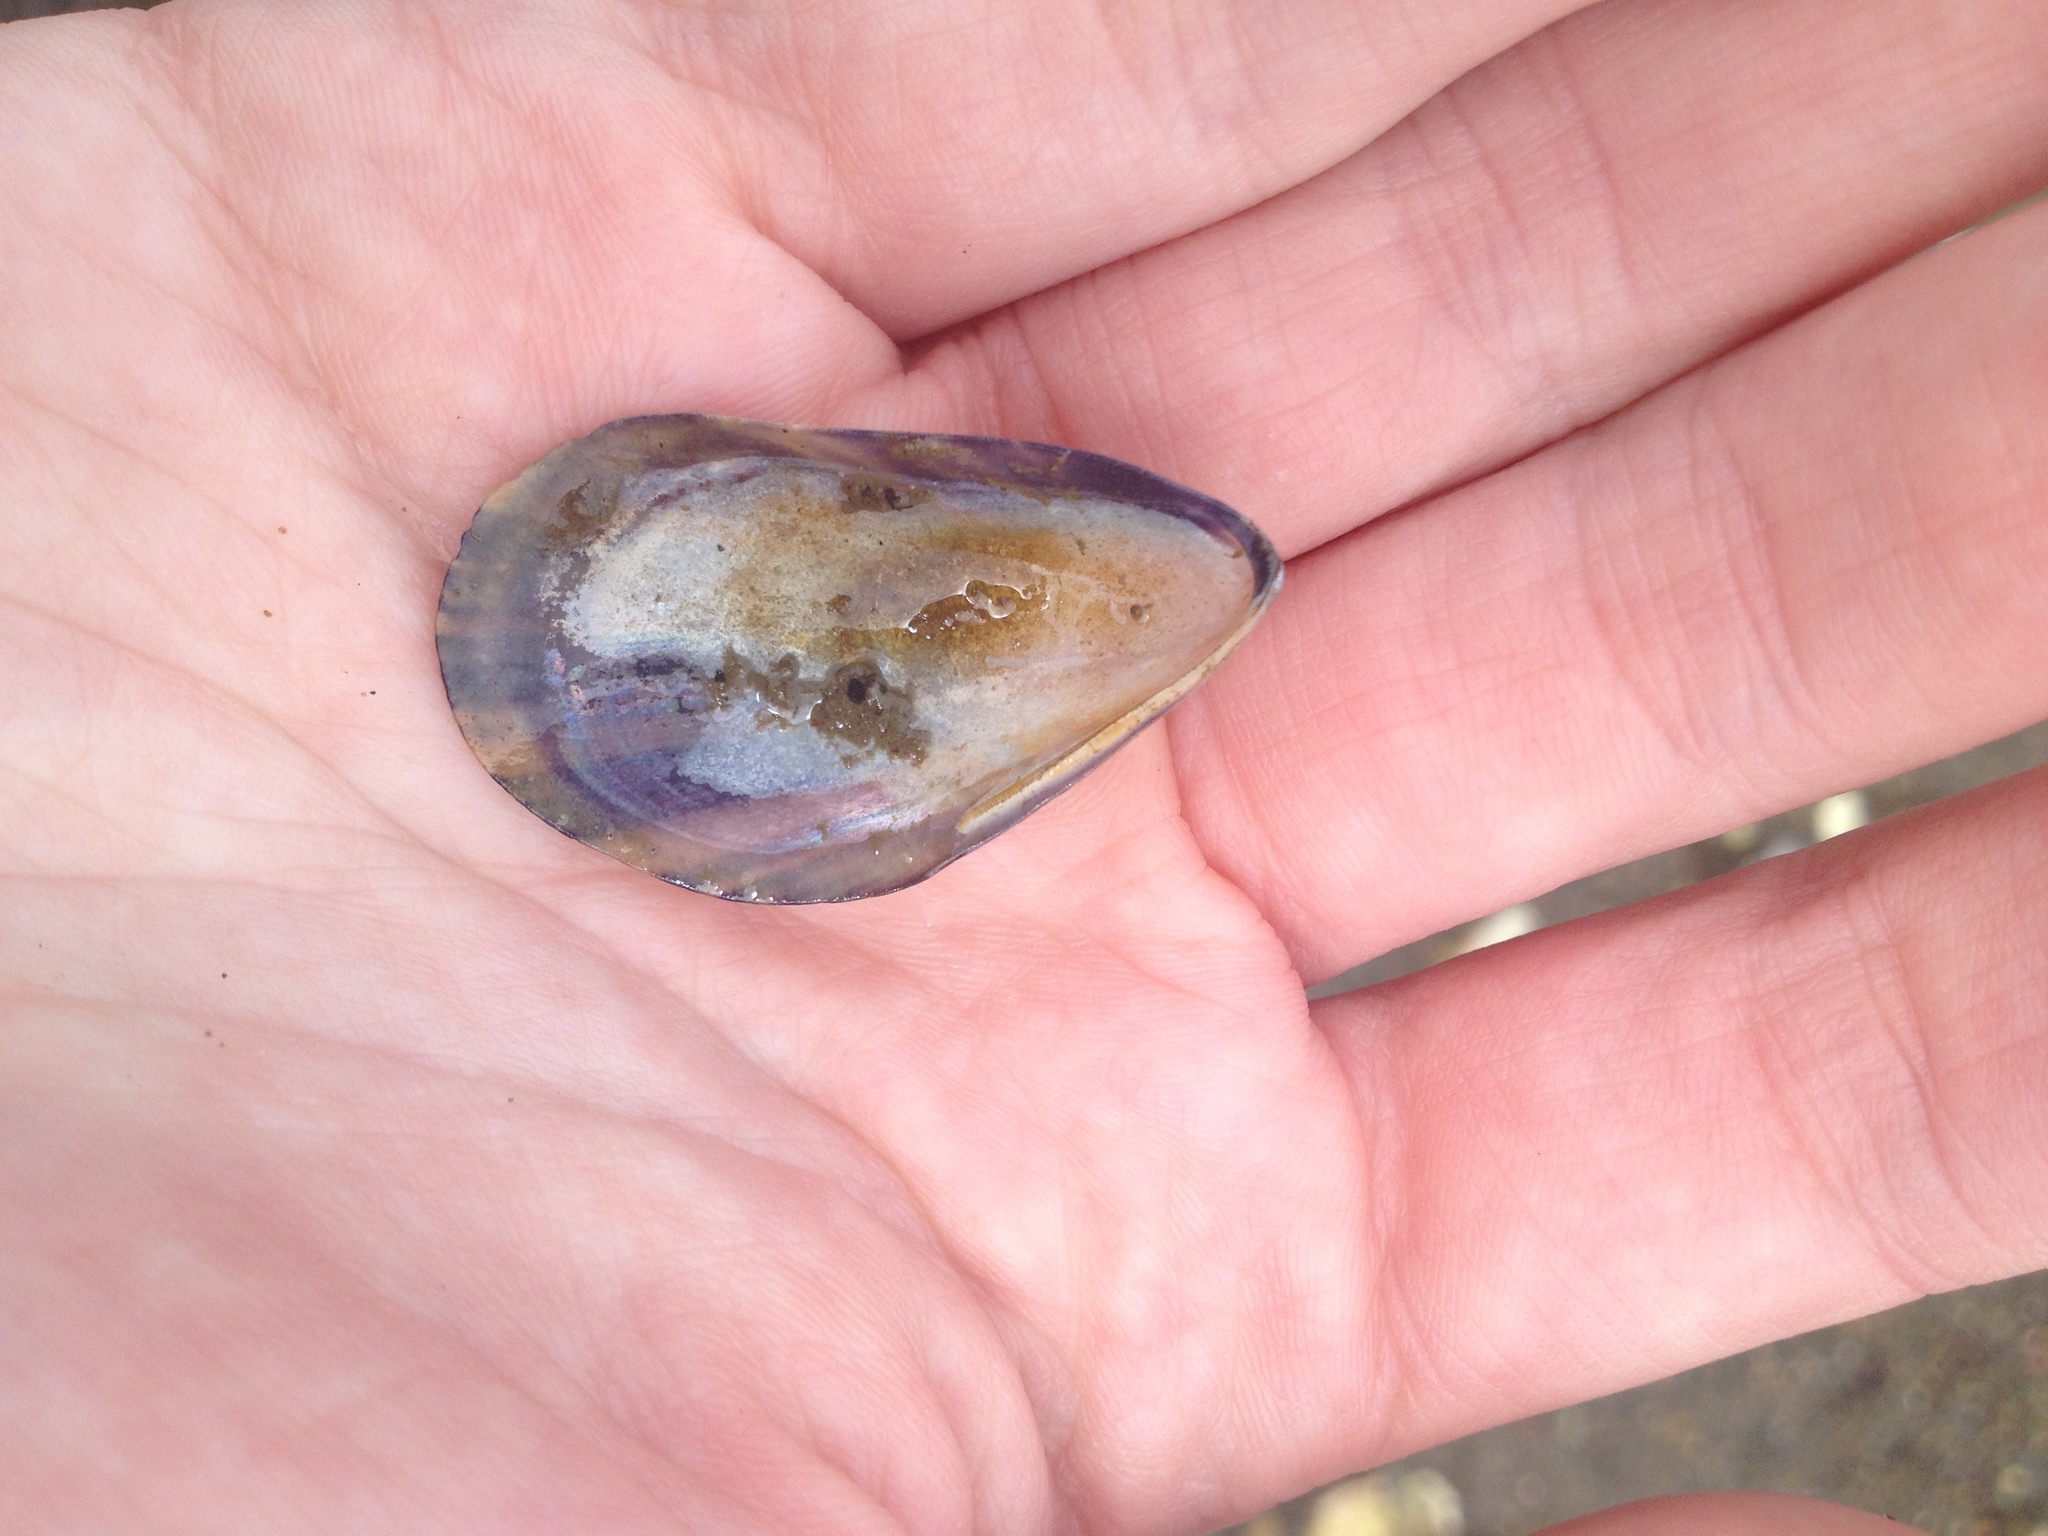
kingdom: Animalia
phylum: Mollusca
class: Bivalvia
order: Mytilida
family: Mytilidae
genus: Mytilus
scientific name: Mytilus edulis
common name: Blue mussel
